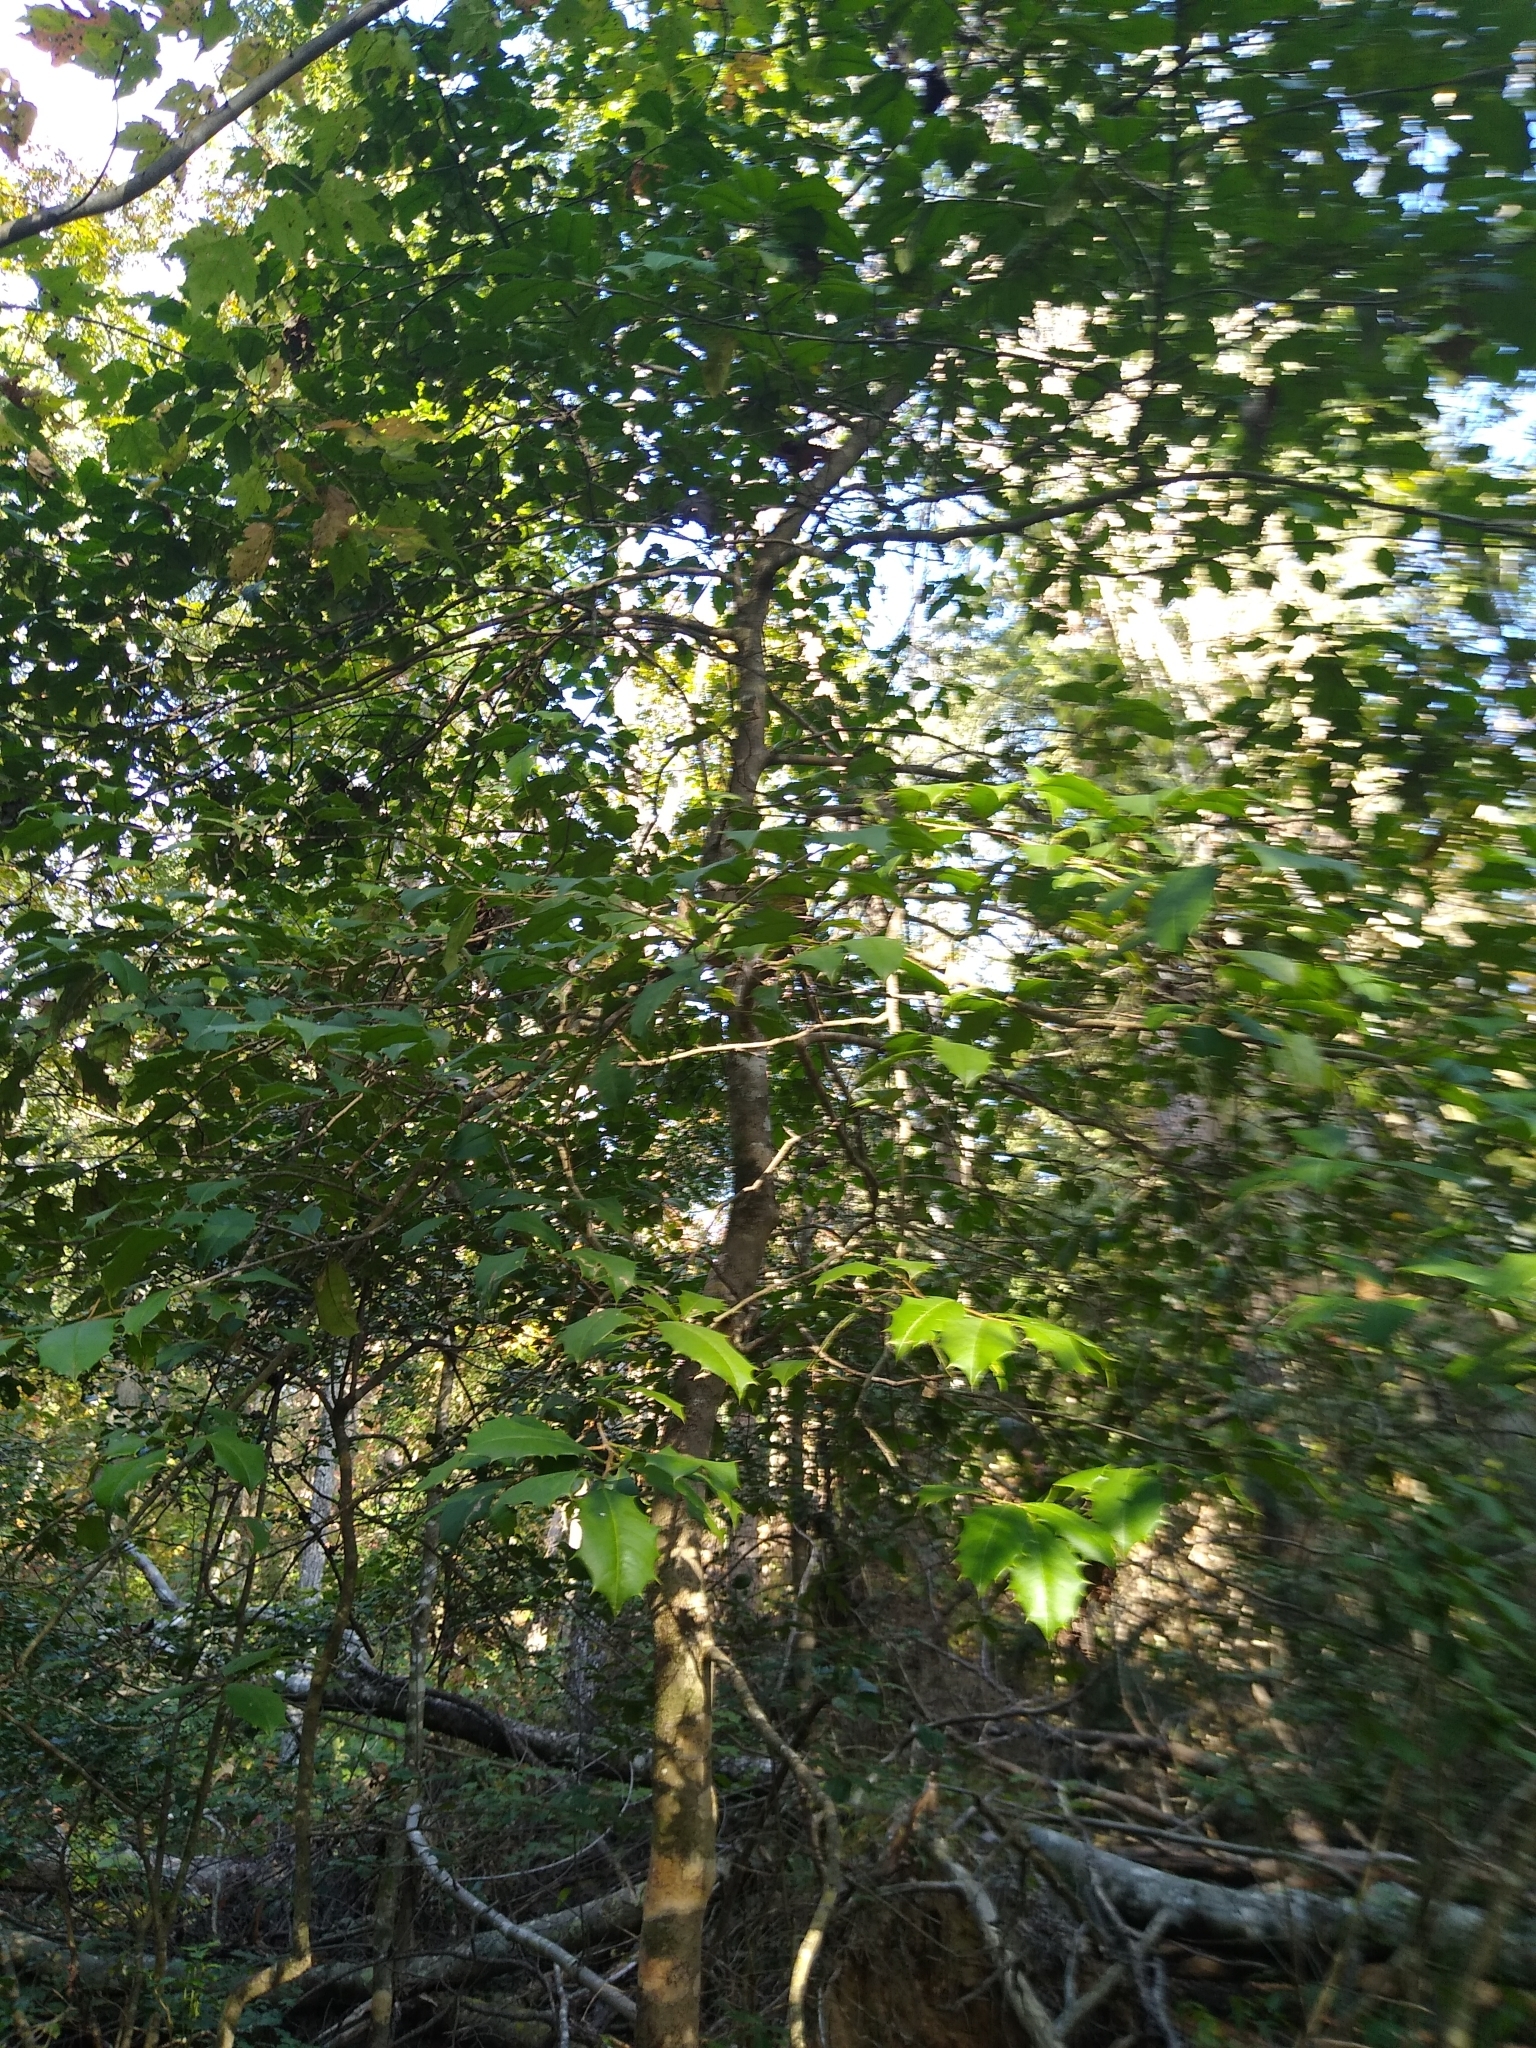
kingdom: Plantae
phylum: Tracheophyta
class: Magnoliopsida
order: Aquifoliales
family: Aquifoliaceae
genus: Ilex
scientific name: Ilex opaca
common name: American holly
